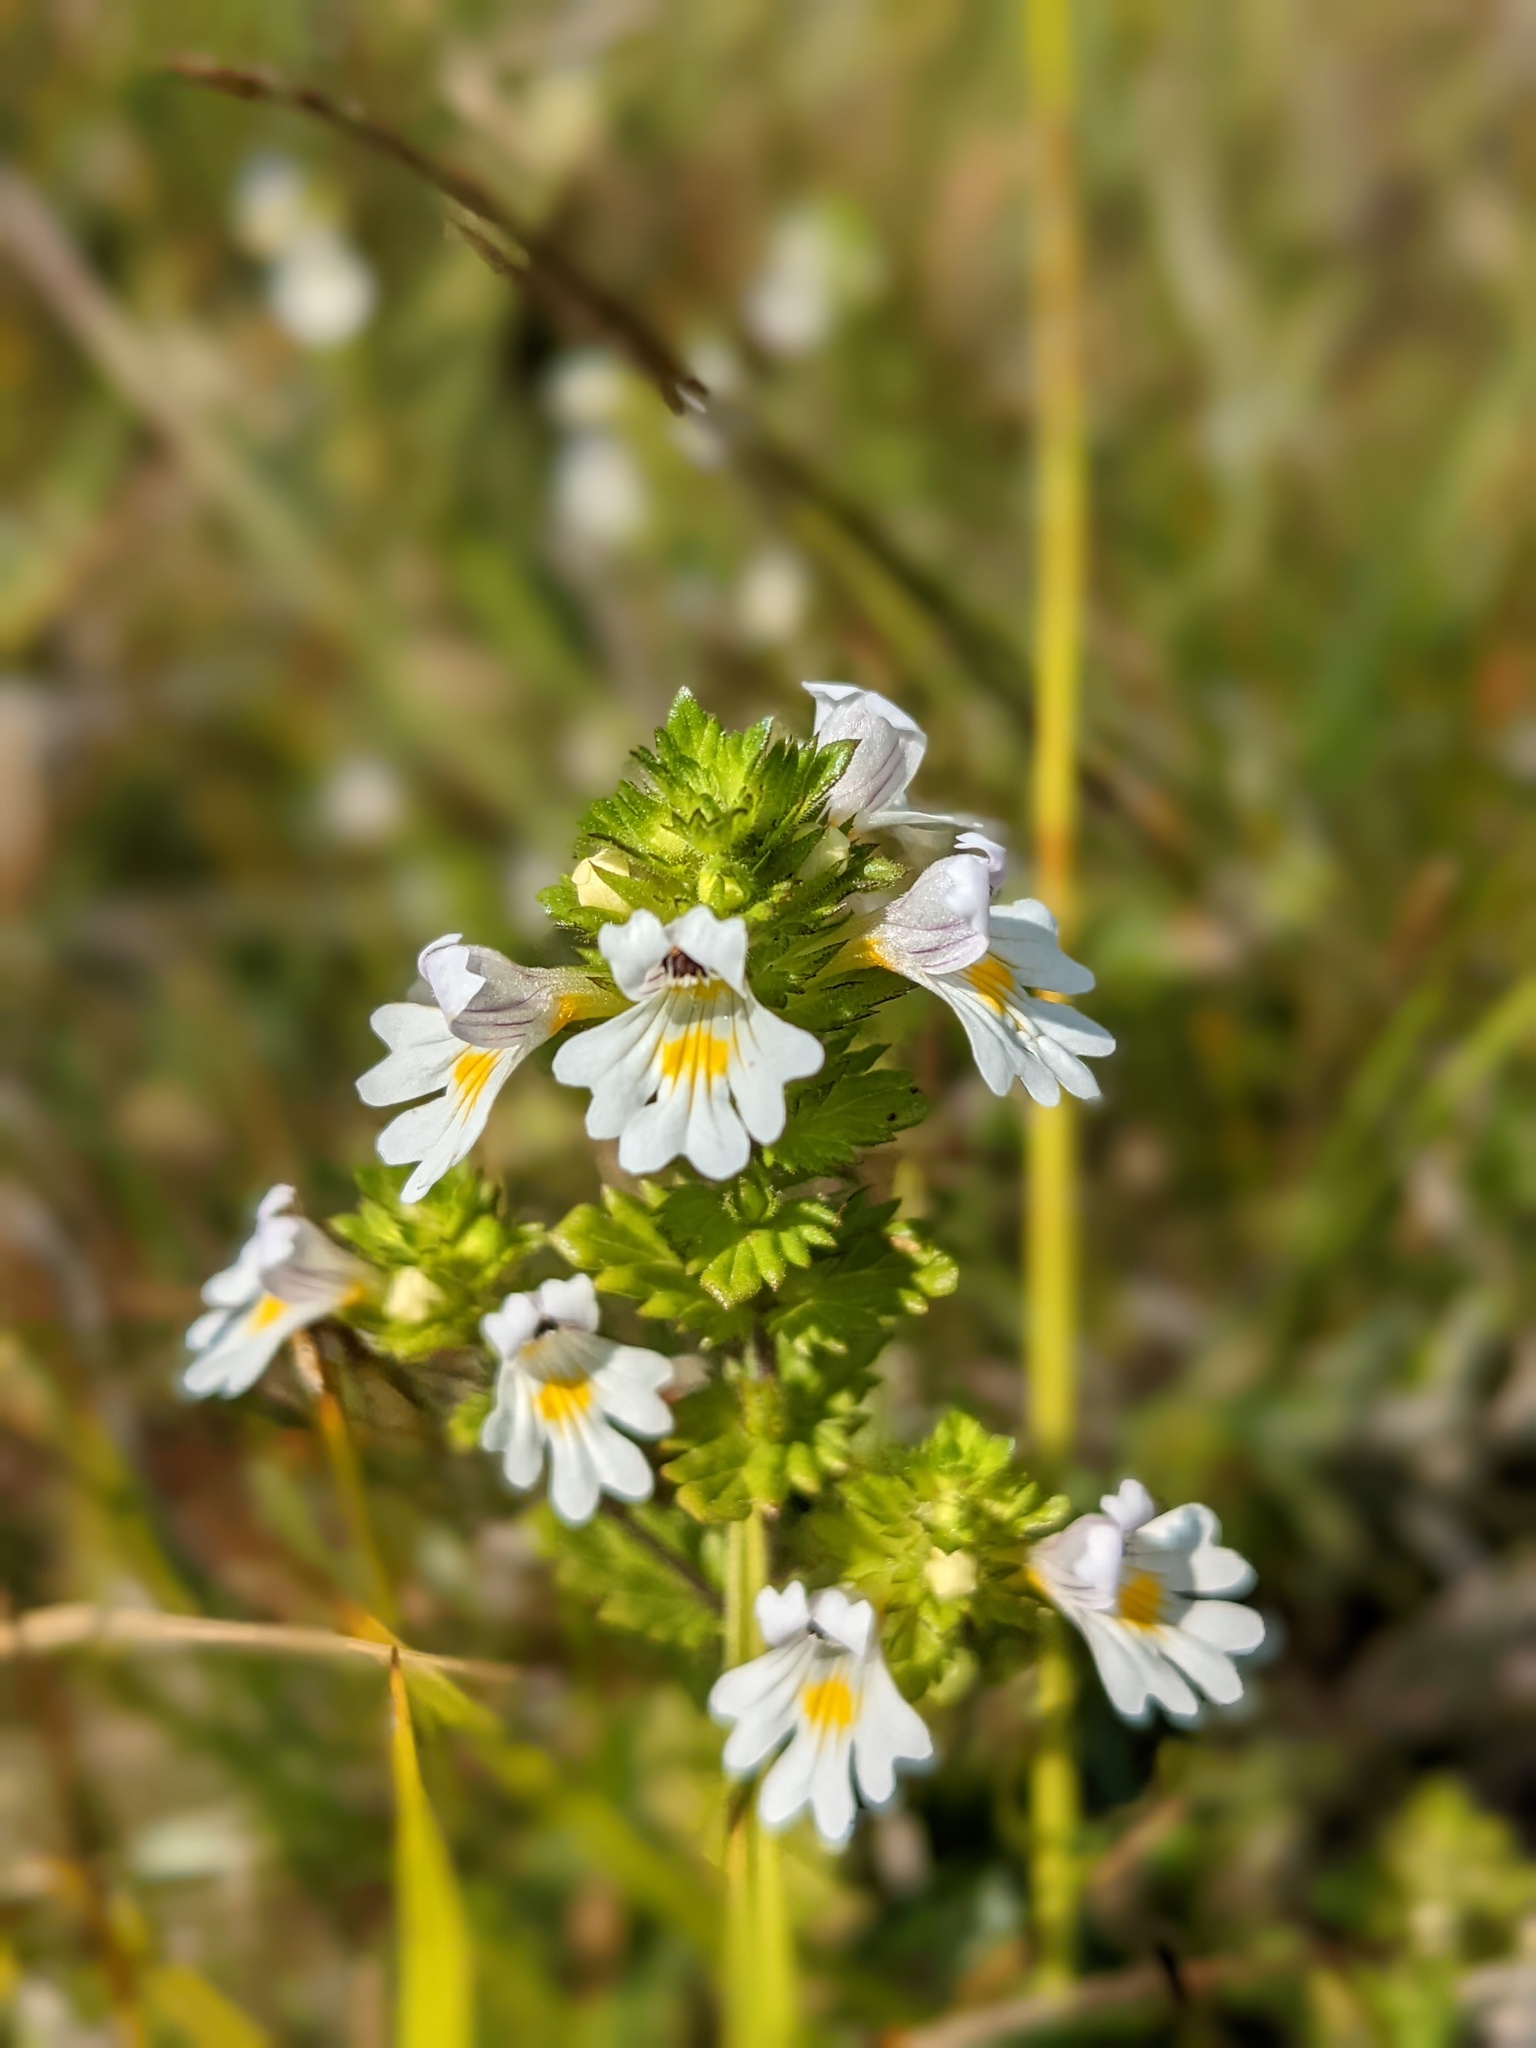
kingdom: Plantae
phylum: Tracheophyta
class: Magnoliopsida
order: Lamiales
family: Orobanchaceae
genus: Euphrasia
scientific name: Euphrasia officinalis
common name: Eyebright
